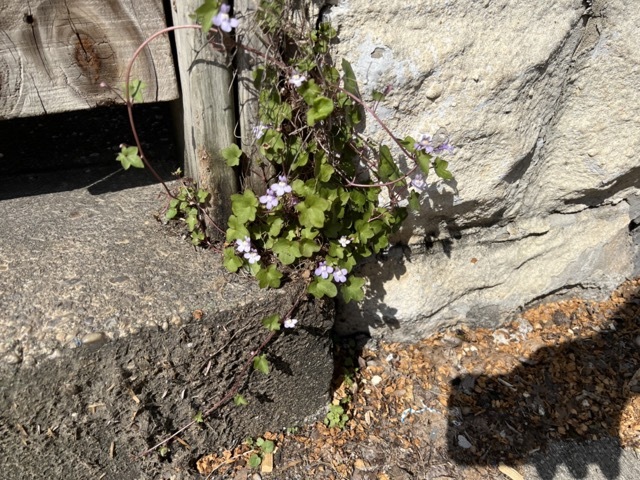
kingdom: Plantae
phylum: Tracheophyta
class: Magnoliopsida
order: Lamiales
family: Plantaginaceae
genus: Cymbalaria
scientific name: Cymbalaria muralis
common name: Ivy-leaved toadflax
